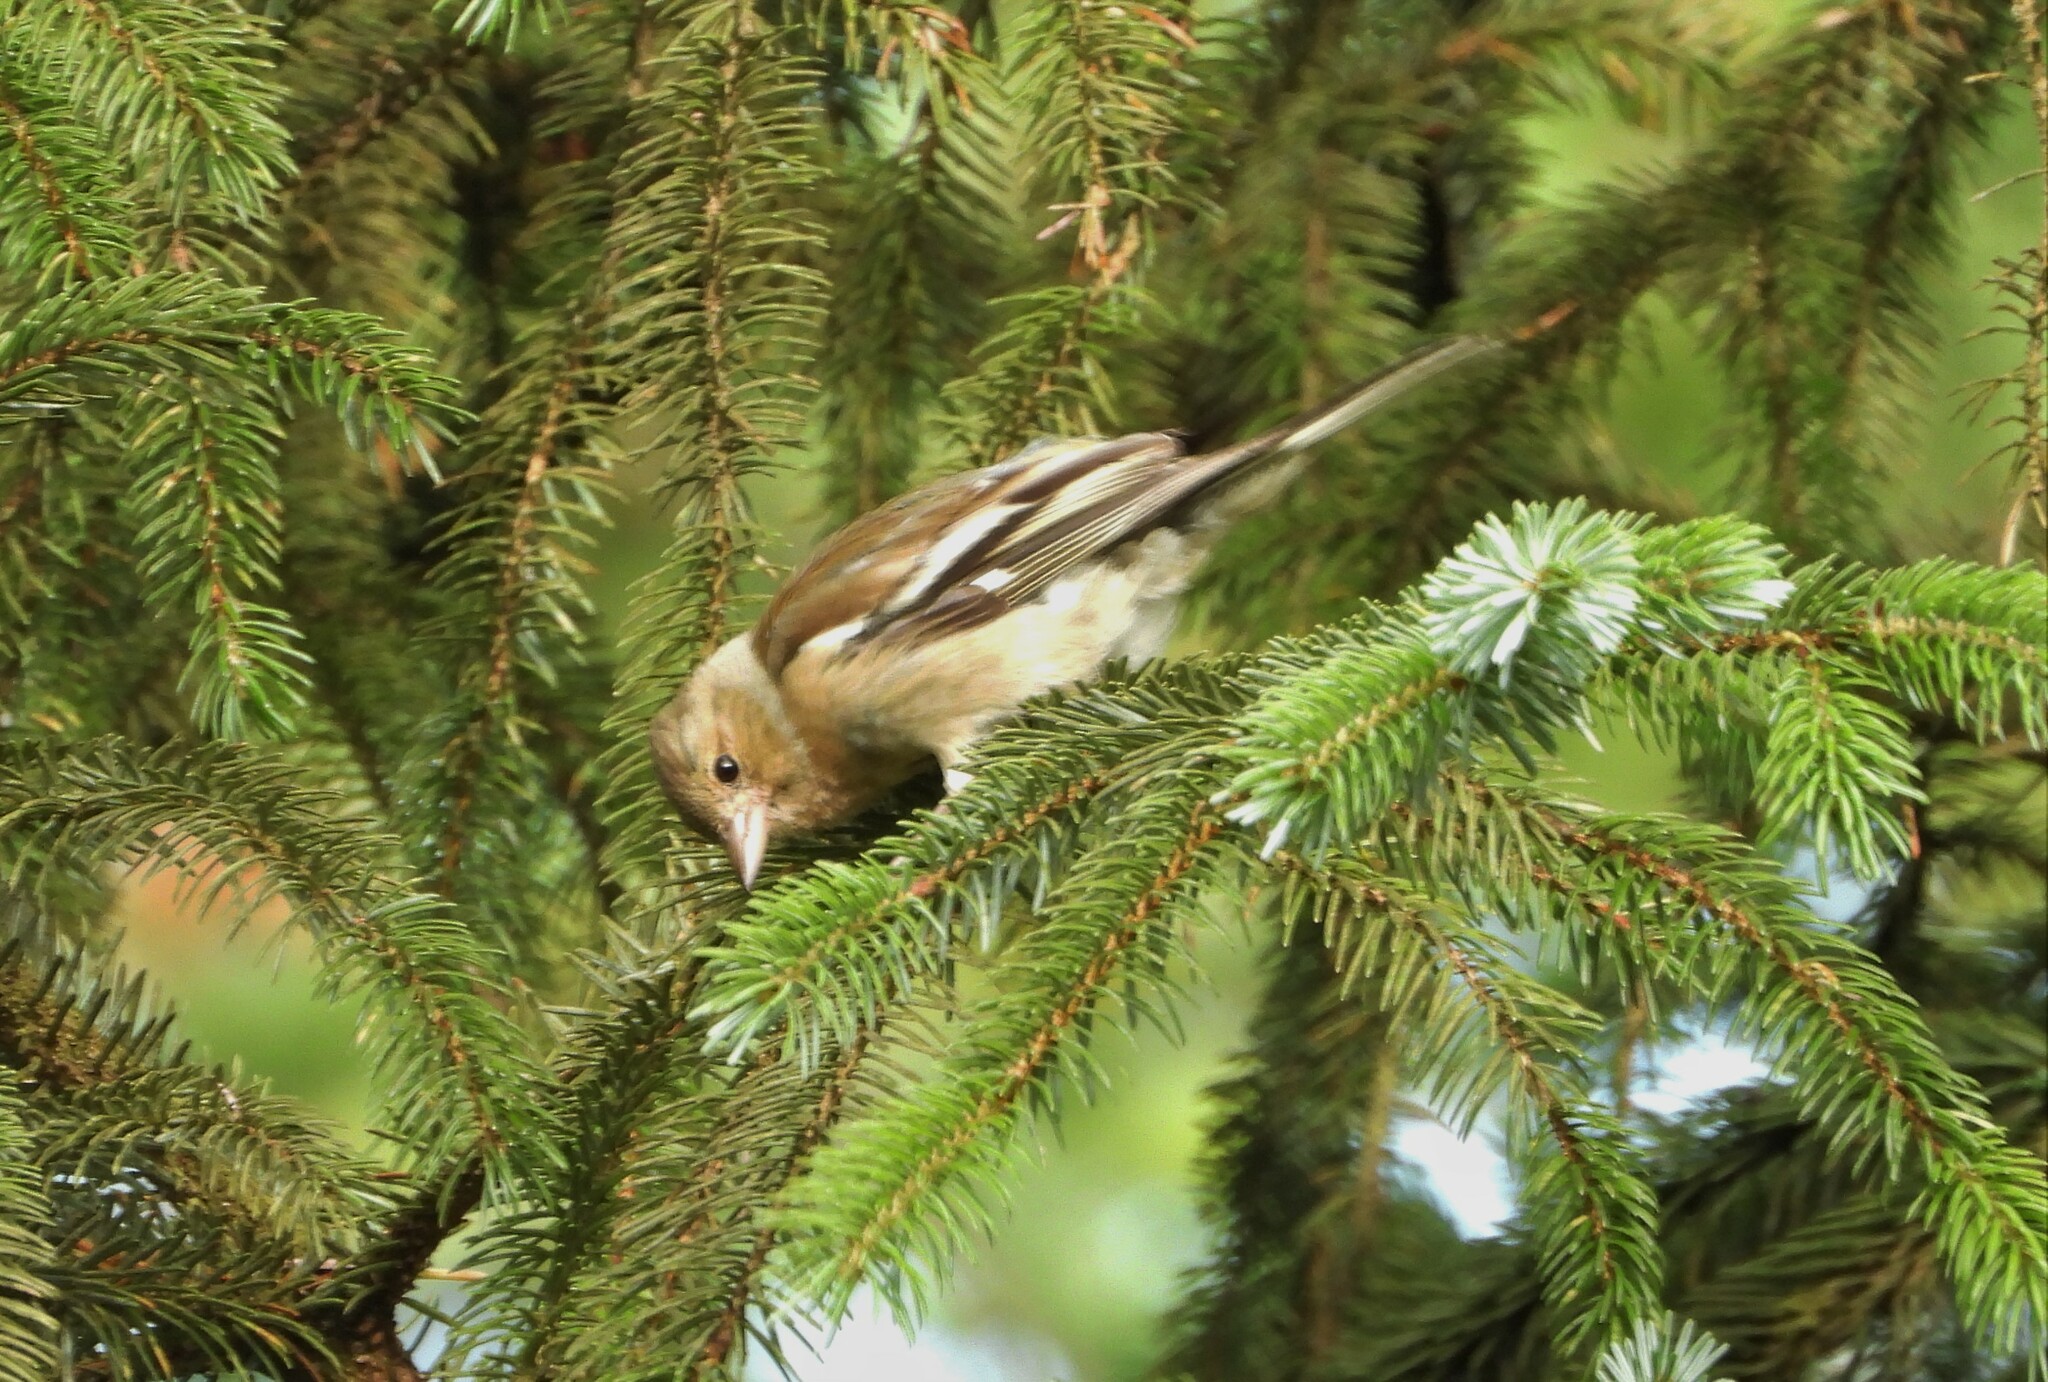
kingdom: Animalia
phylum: Chordata
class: Aves
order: Passeriformes
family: Fringillidae
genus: Fringilla
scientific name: Fringilla coelebs
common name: Common chaffinch
